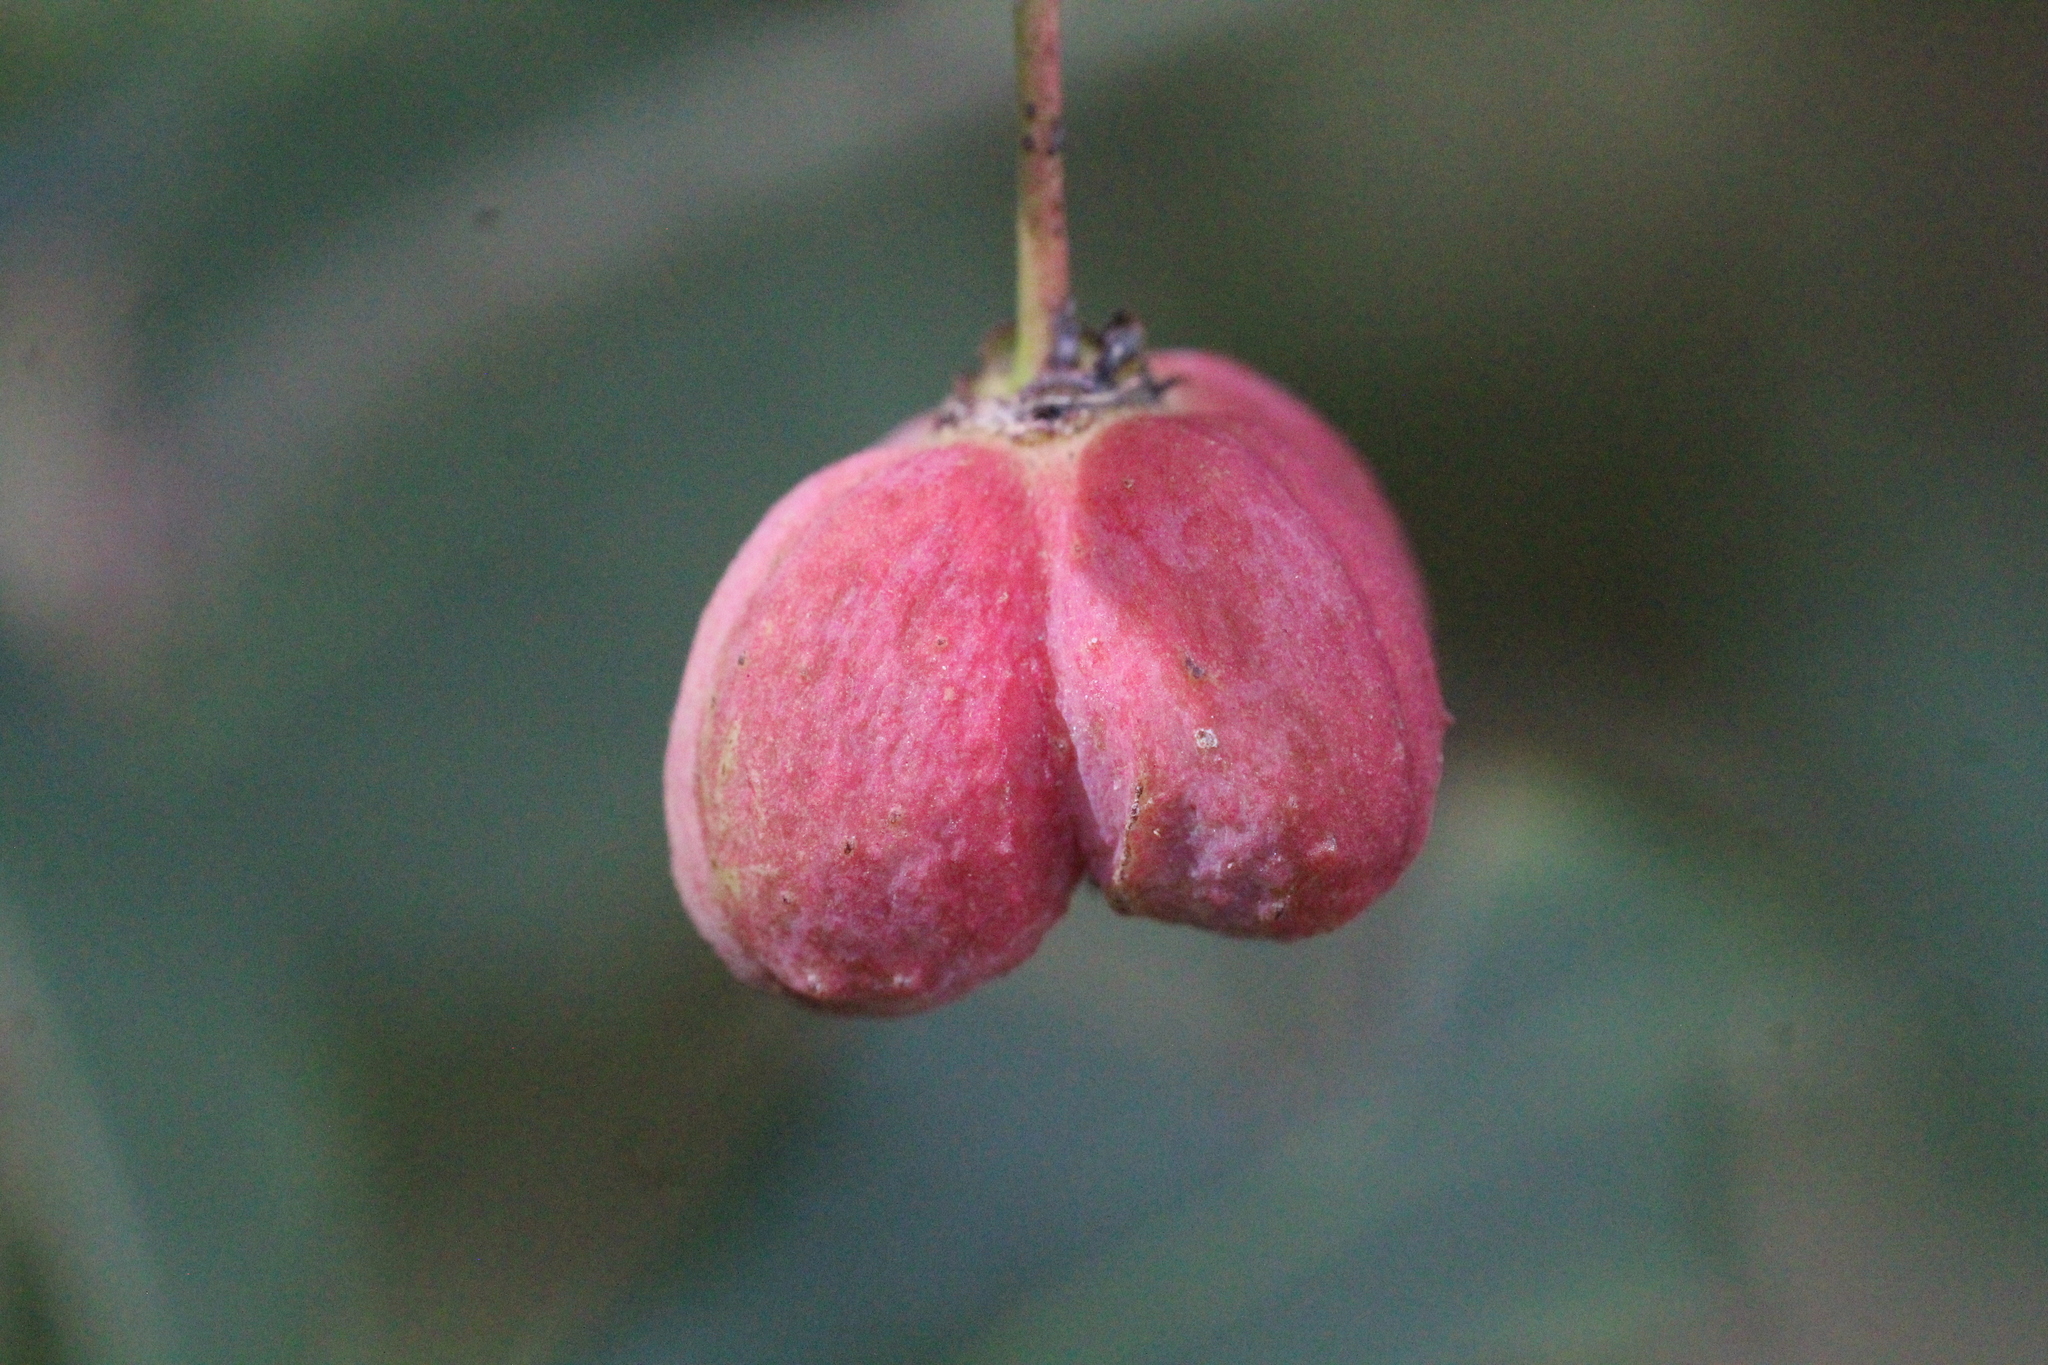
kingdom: Plantae
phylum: Tracheophyta
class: Magnoliopsida
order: Celastrales
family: Celastraceae
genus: Euonymus
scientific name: Euonymus europaeus
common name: Spindle
